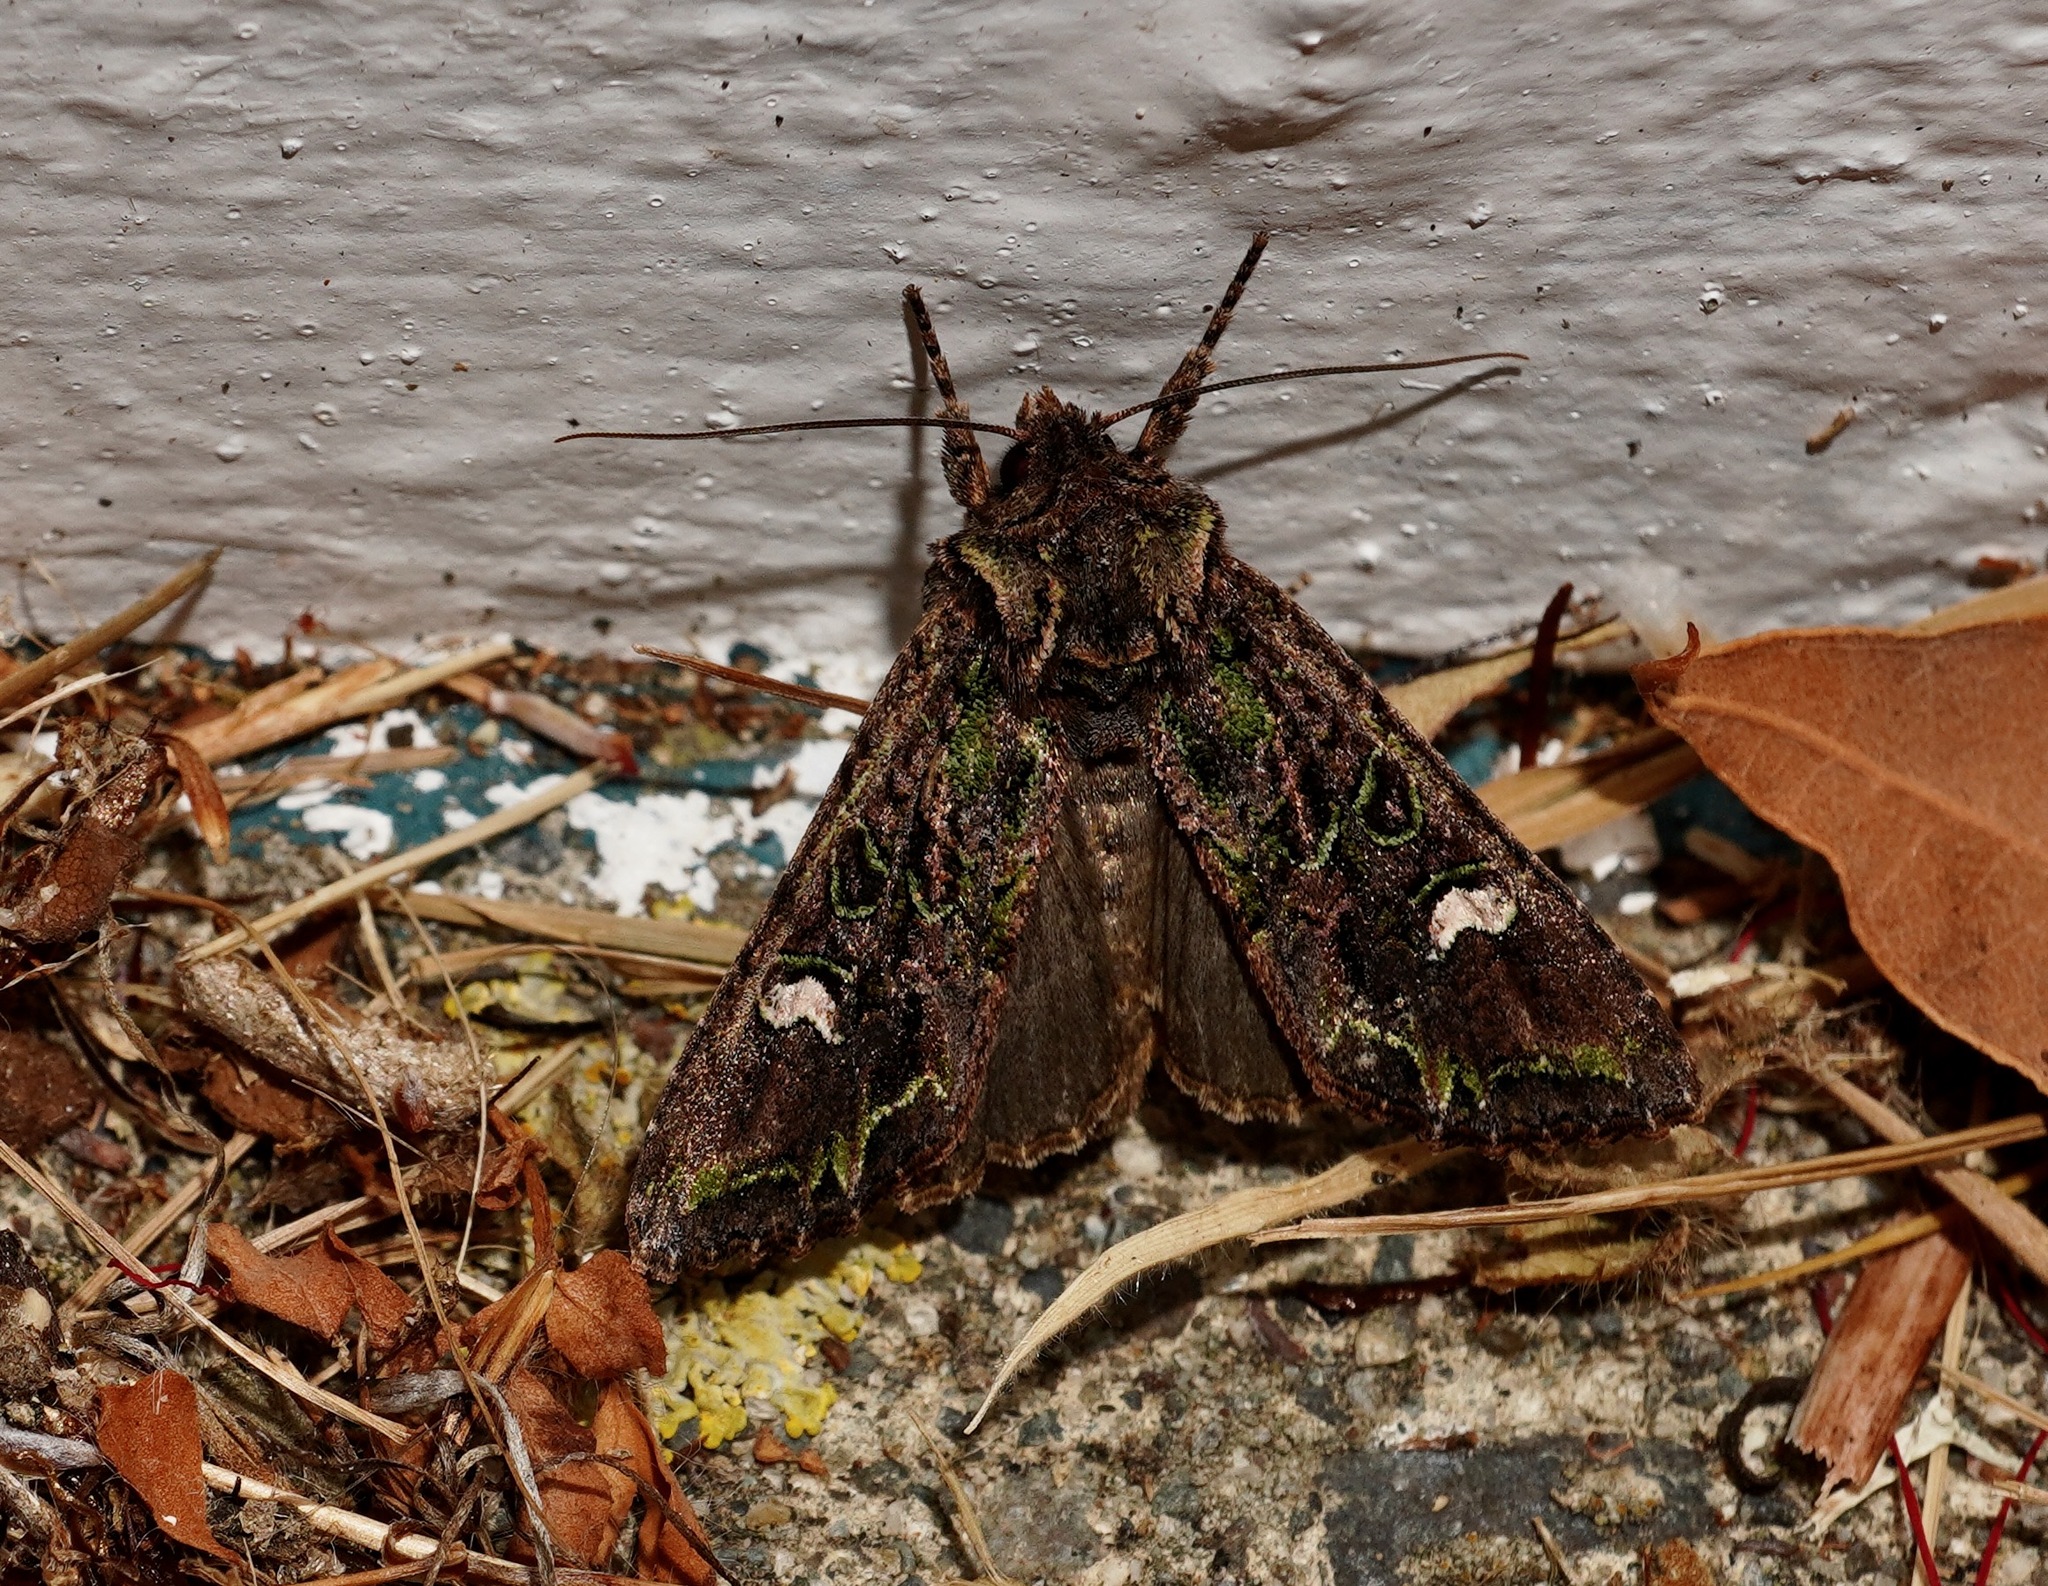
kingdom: Animalia
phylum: Arthropoda
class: Insecta
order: Lepidoptera
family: Noctuidae
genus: Ichneutica
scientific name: Ichneutica insignis
